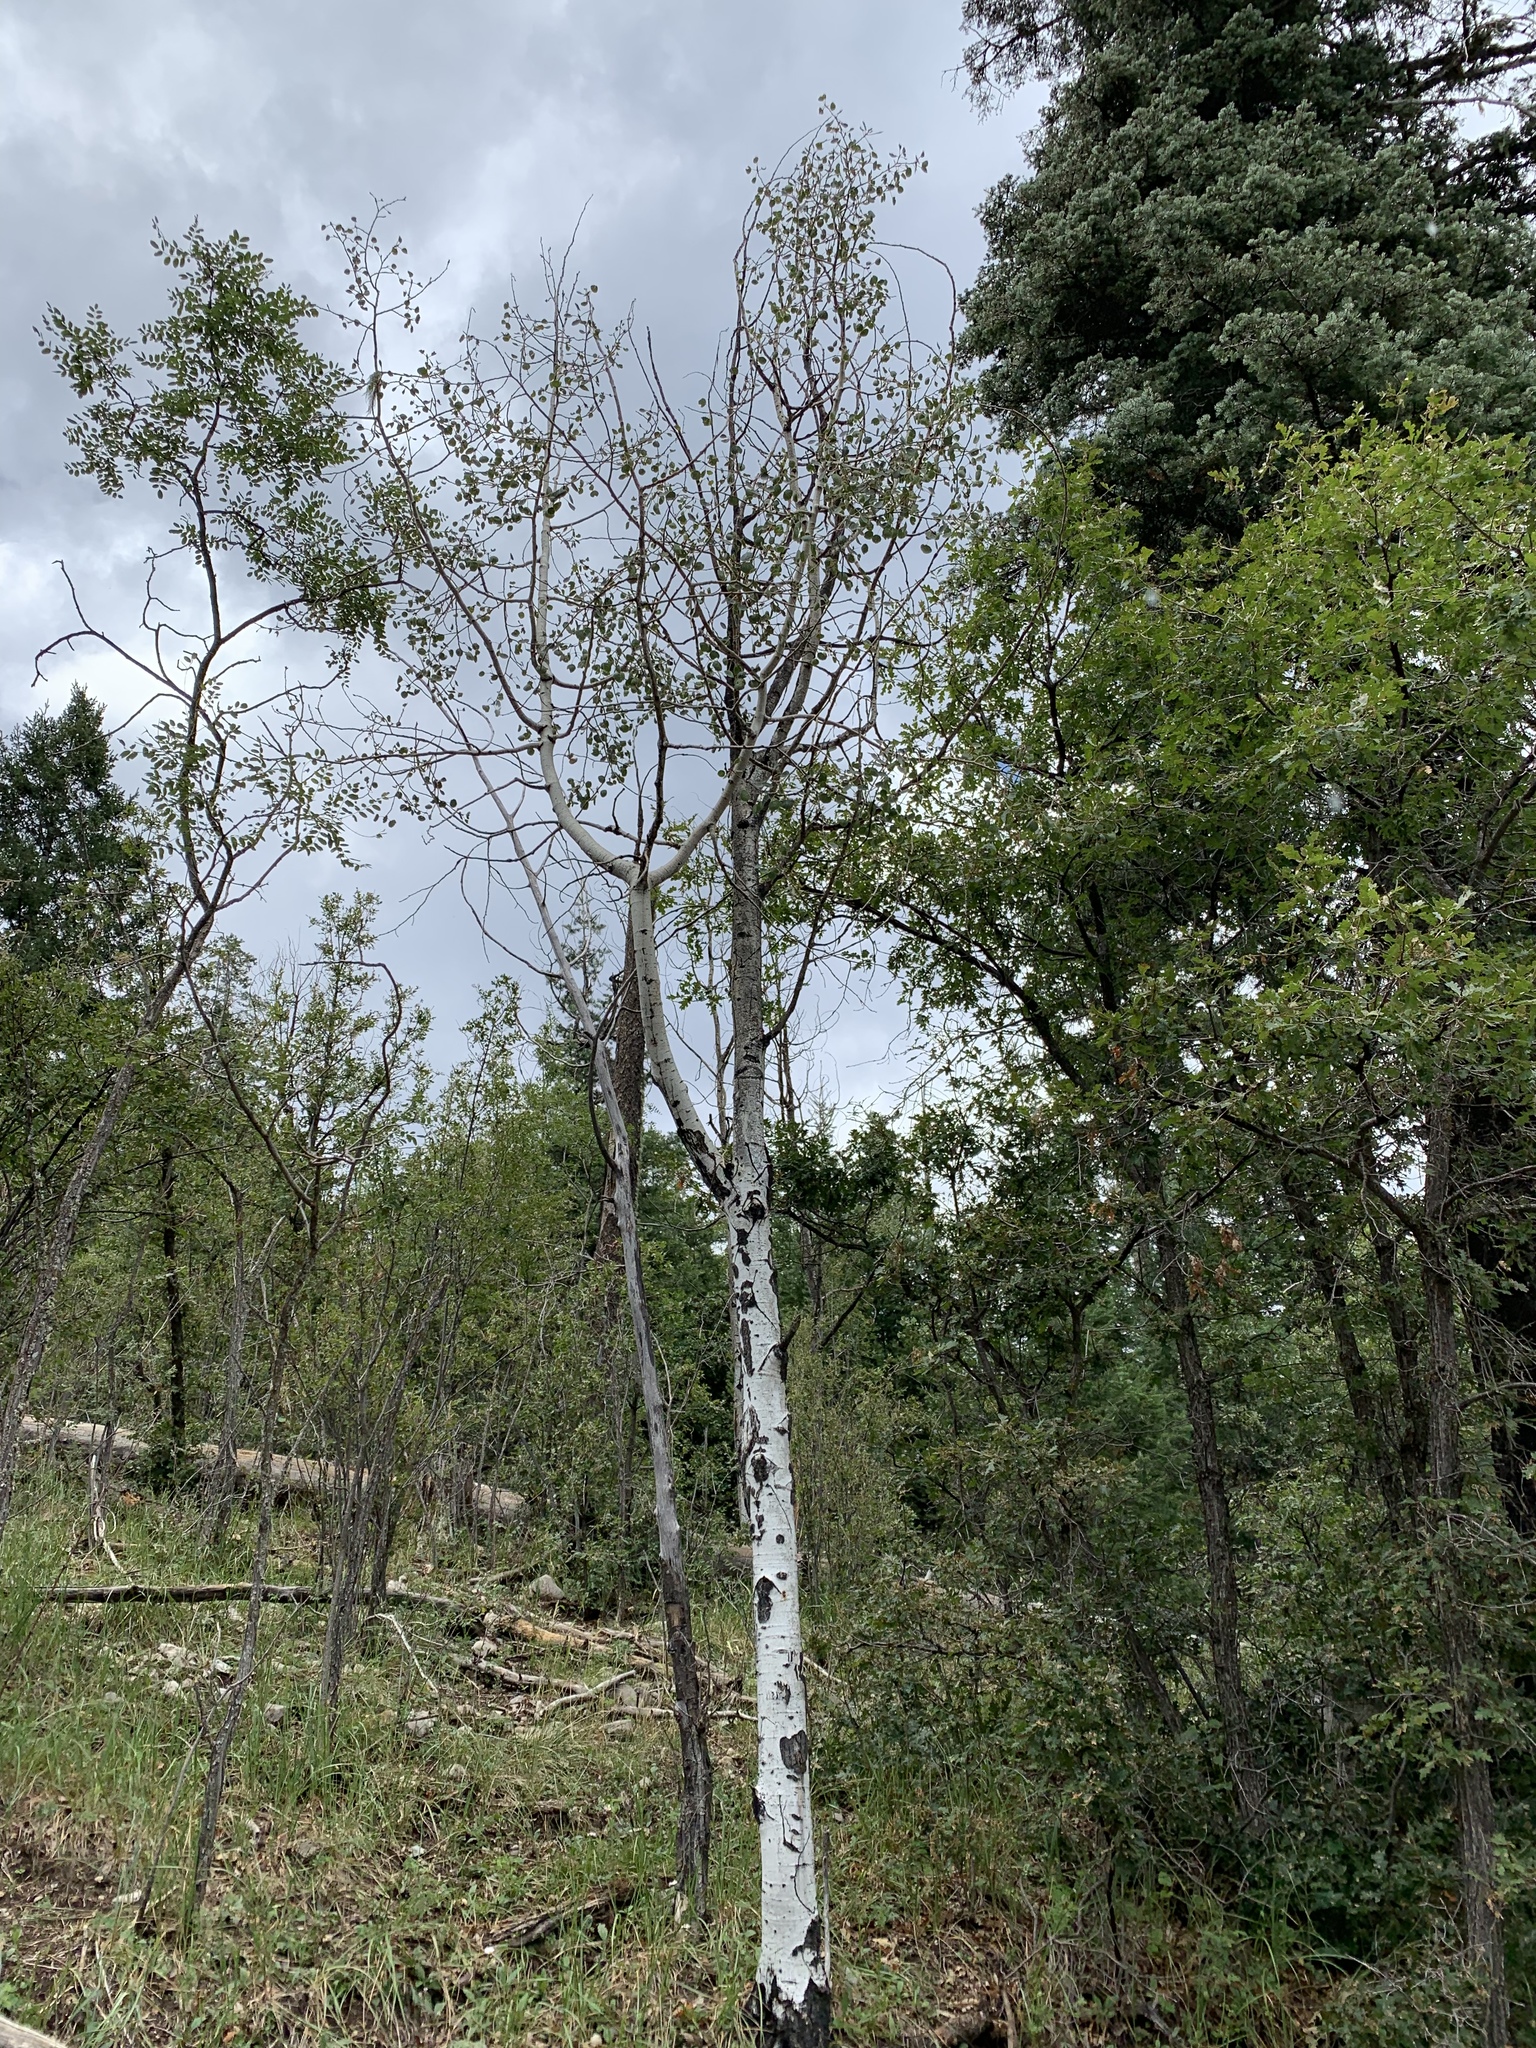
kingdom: Plantae
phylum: Tracheophyta
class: Magnoliopsida
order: Malpighiales
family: Salicaceae
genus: Populus
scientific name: Populus tremuloides
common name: Quaking aspen
